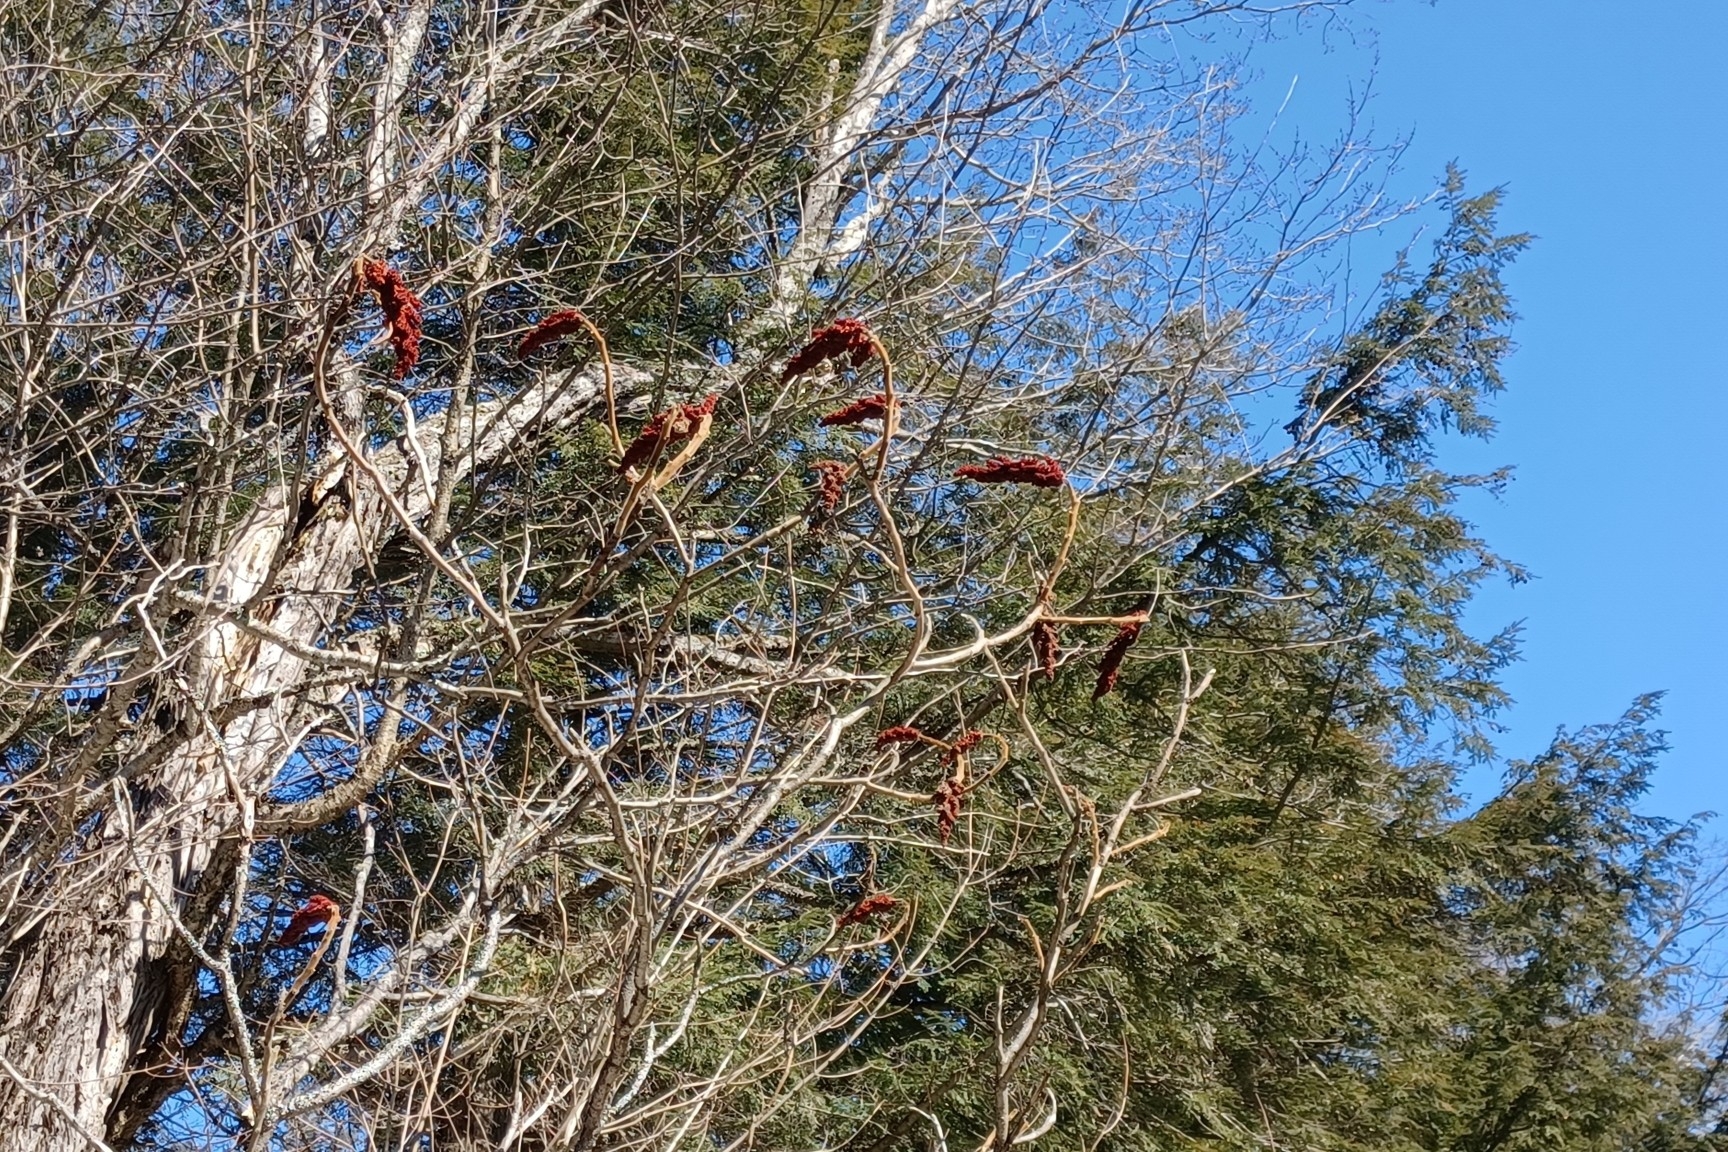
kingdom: Plantae
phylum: Tracheophyta
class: Magnoliopsida
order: Sapindales
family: Anacardiaceae
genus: Rhus
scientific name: Rhus typhina
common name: Staghorn sumac
